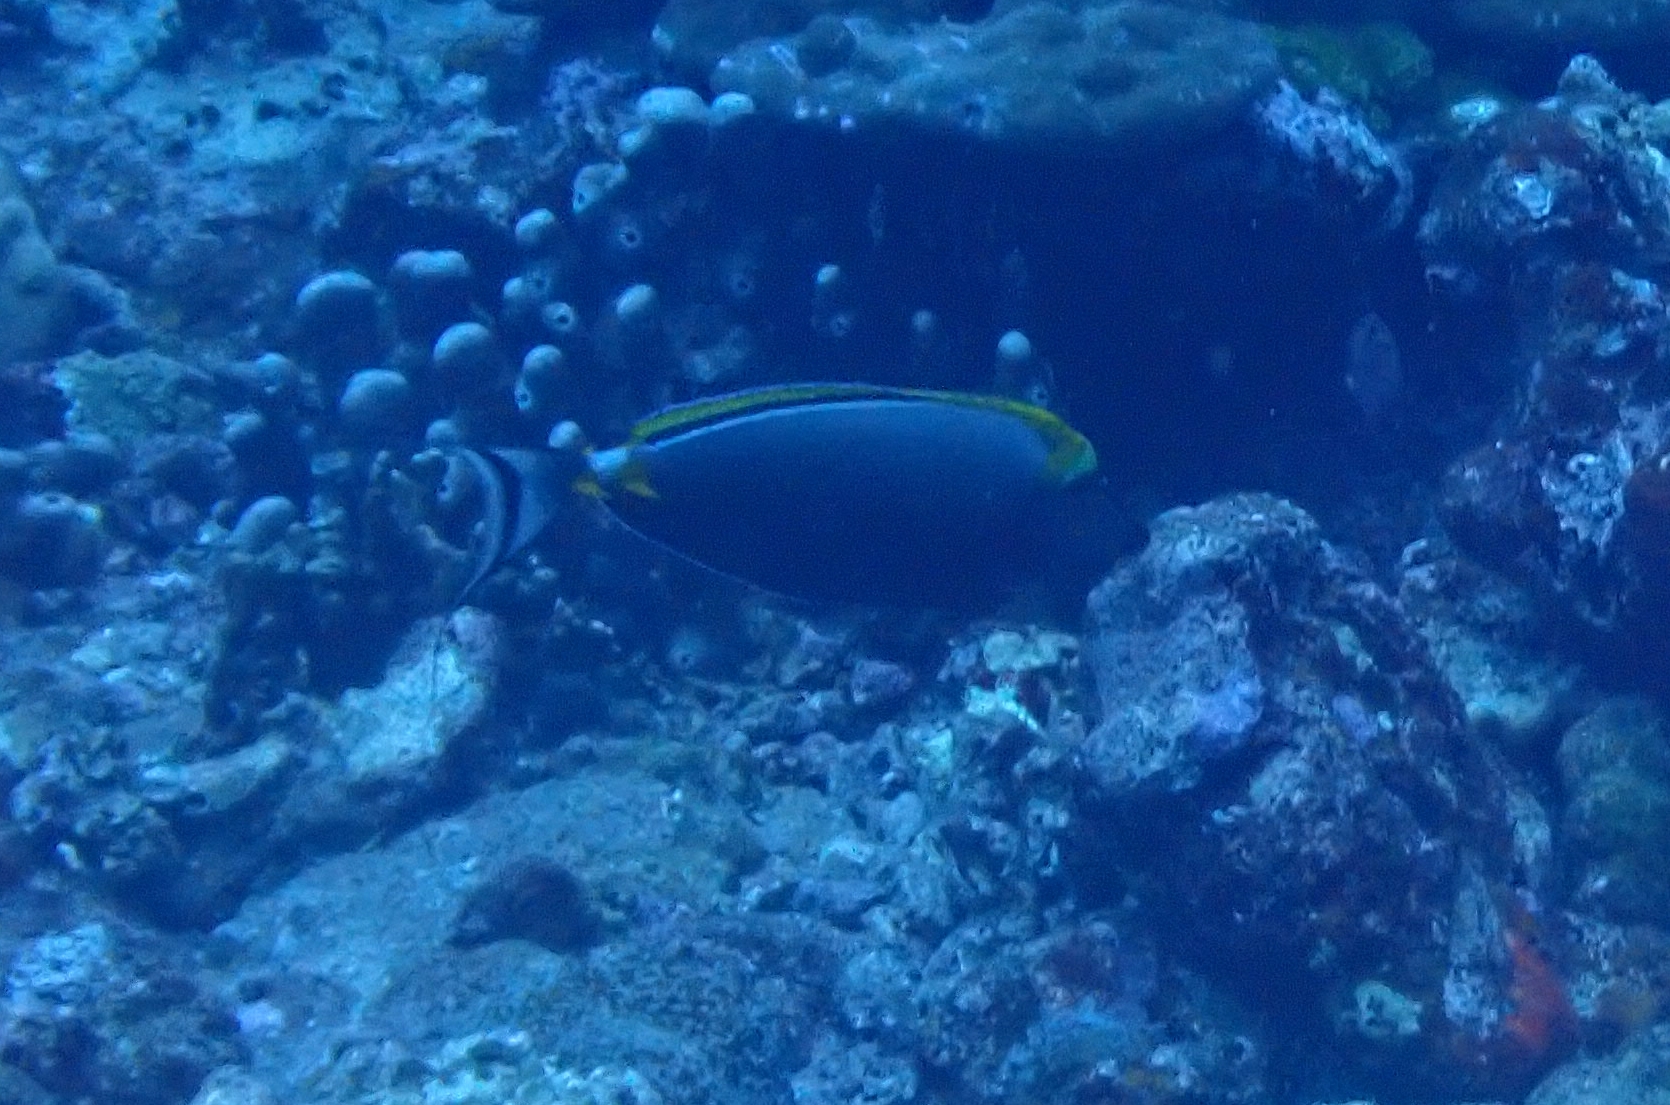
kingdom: Animalia
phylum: Chordata
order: Perciformes
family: Acanthuridae
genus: Naso
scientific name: Naso elegans
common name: Orangespine unicornfish
